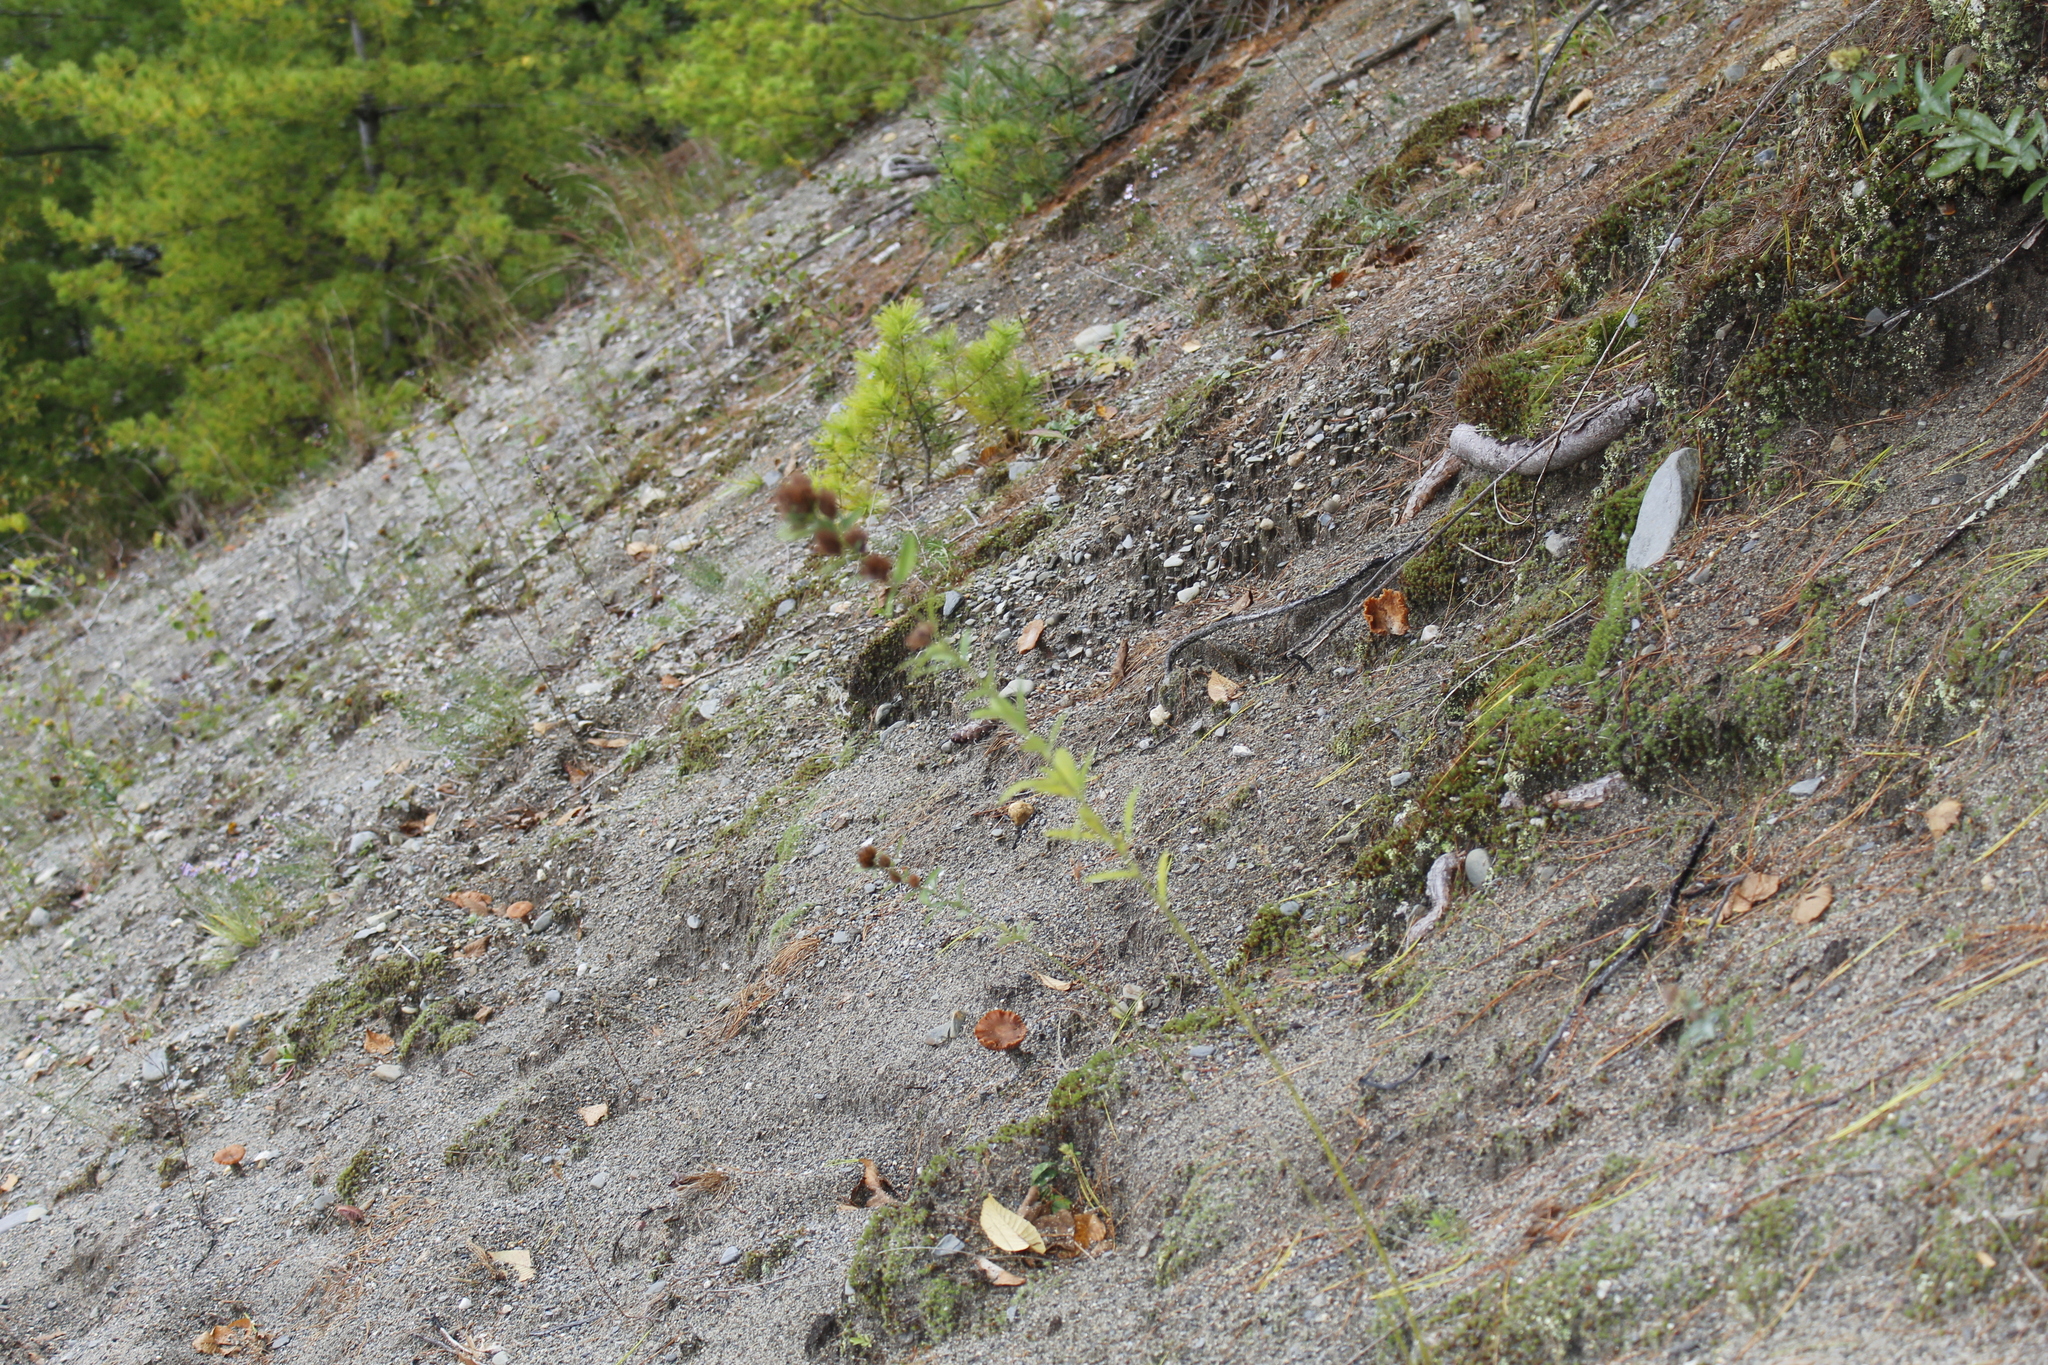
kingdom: Plantae
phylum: Tracheophyta
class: Magnoliopsida
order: Fabales
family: Fabaceae
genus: Lespedeza
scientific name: Lespedeza capitata
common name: Dusty clover
